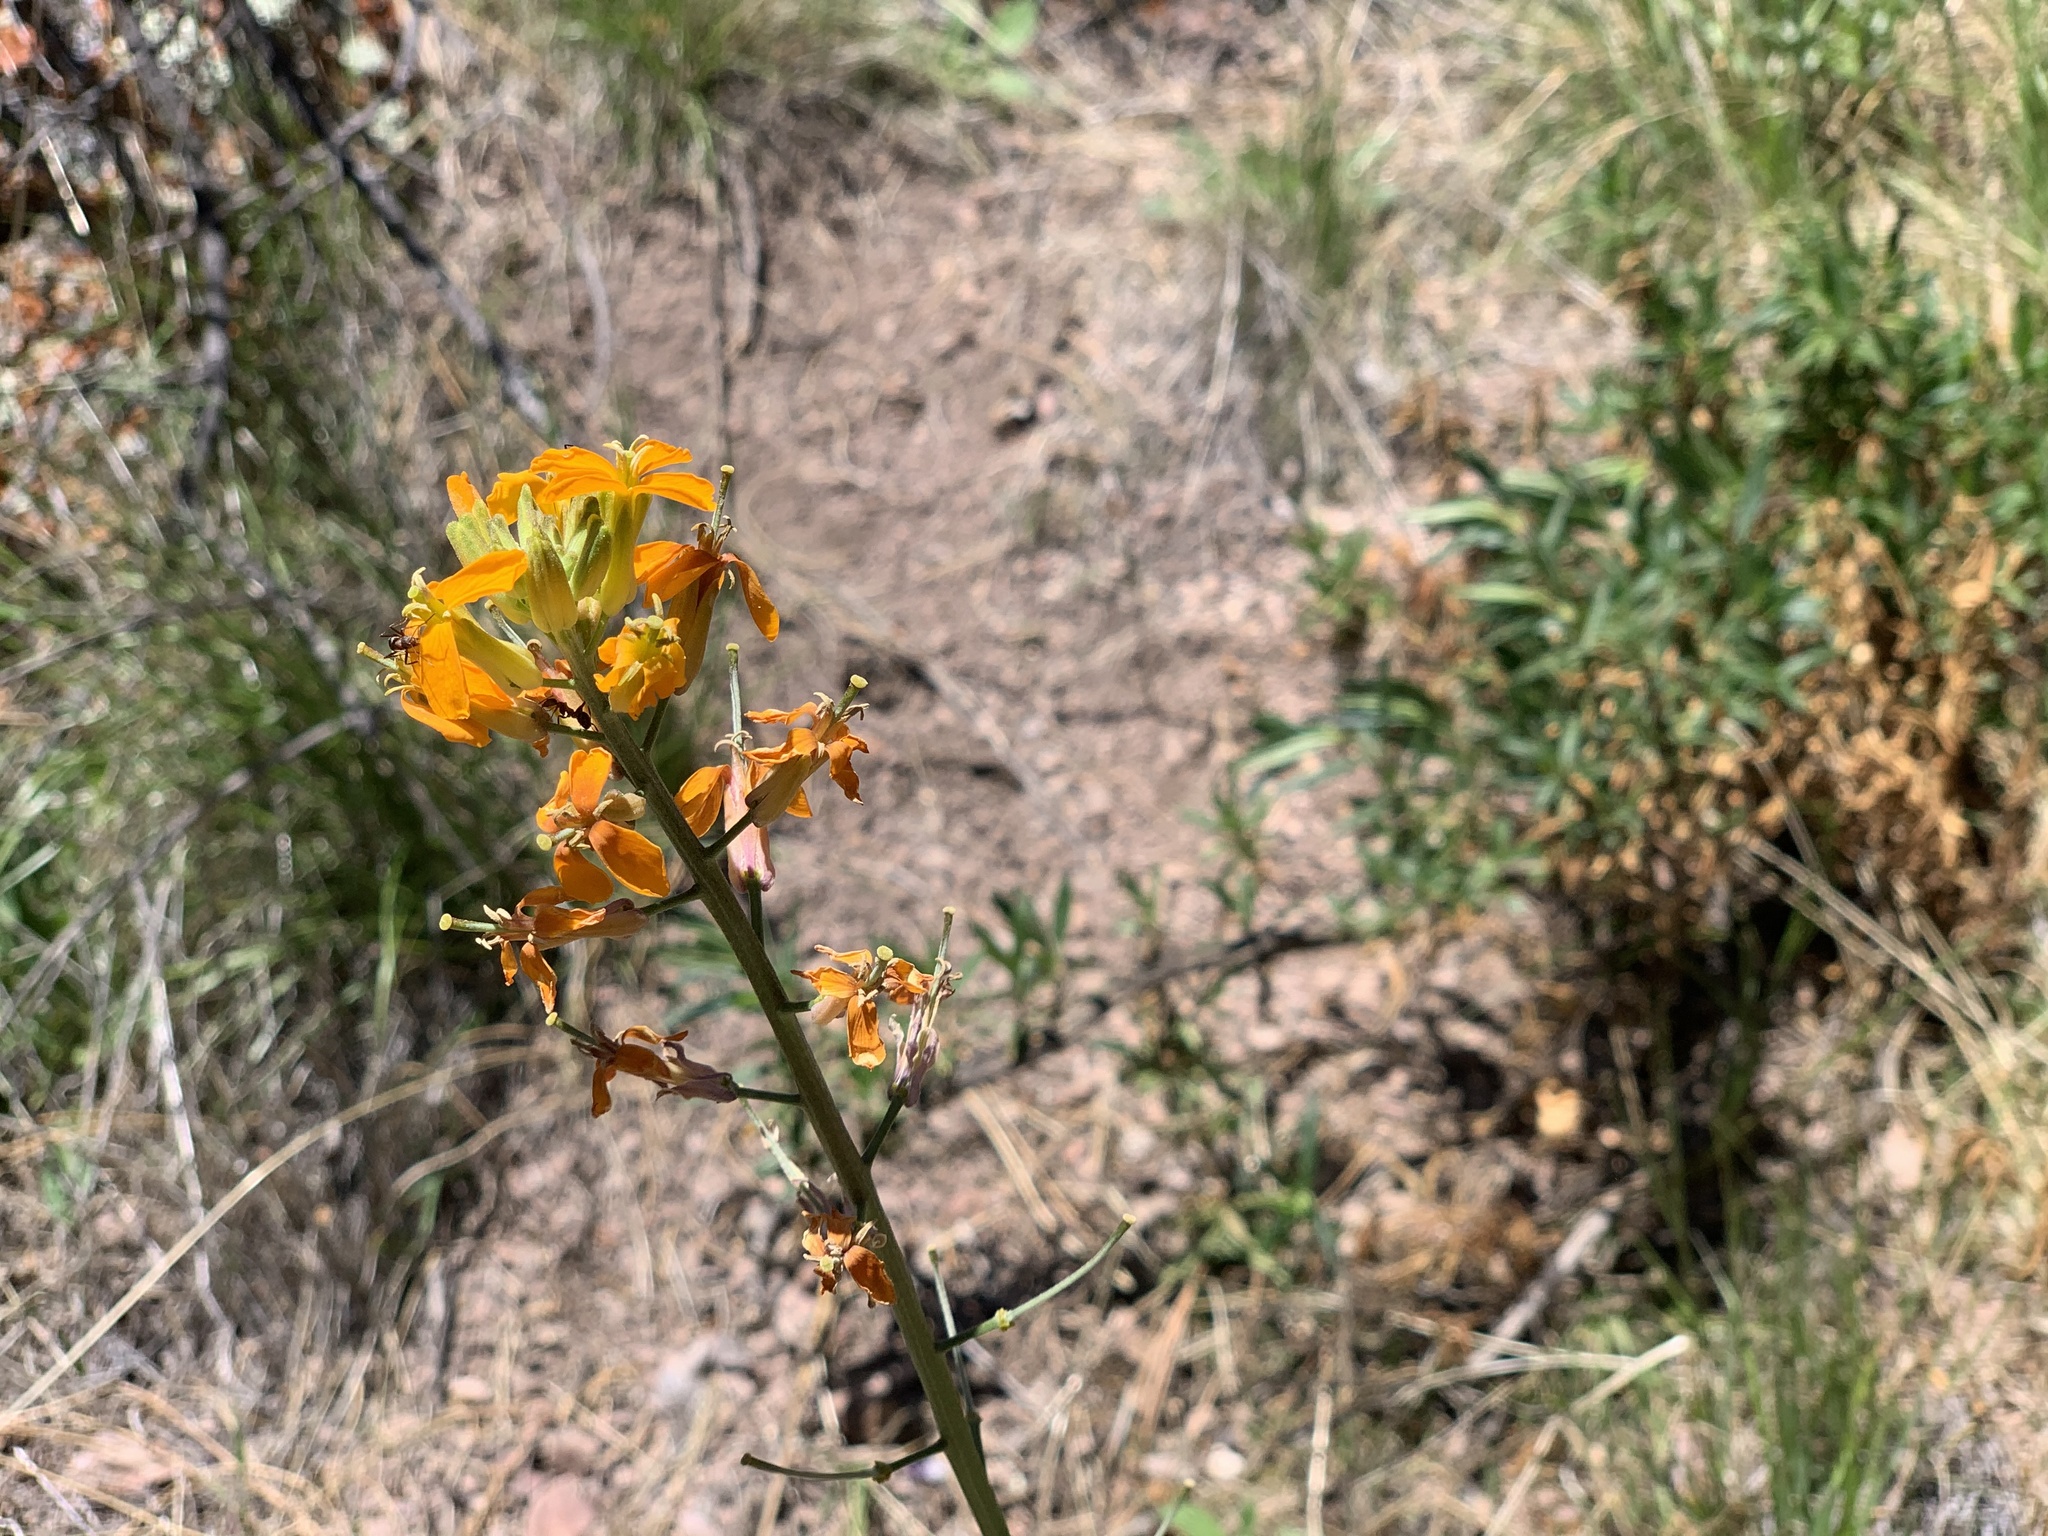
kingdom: Plantae
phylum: Tracheophyta
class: Magnoliopsida
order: Brassicales
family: Brassicaceae
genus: Erysimum
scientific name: Erysimum capitatum
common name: Western wallflower
